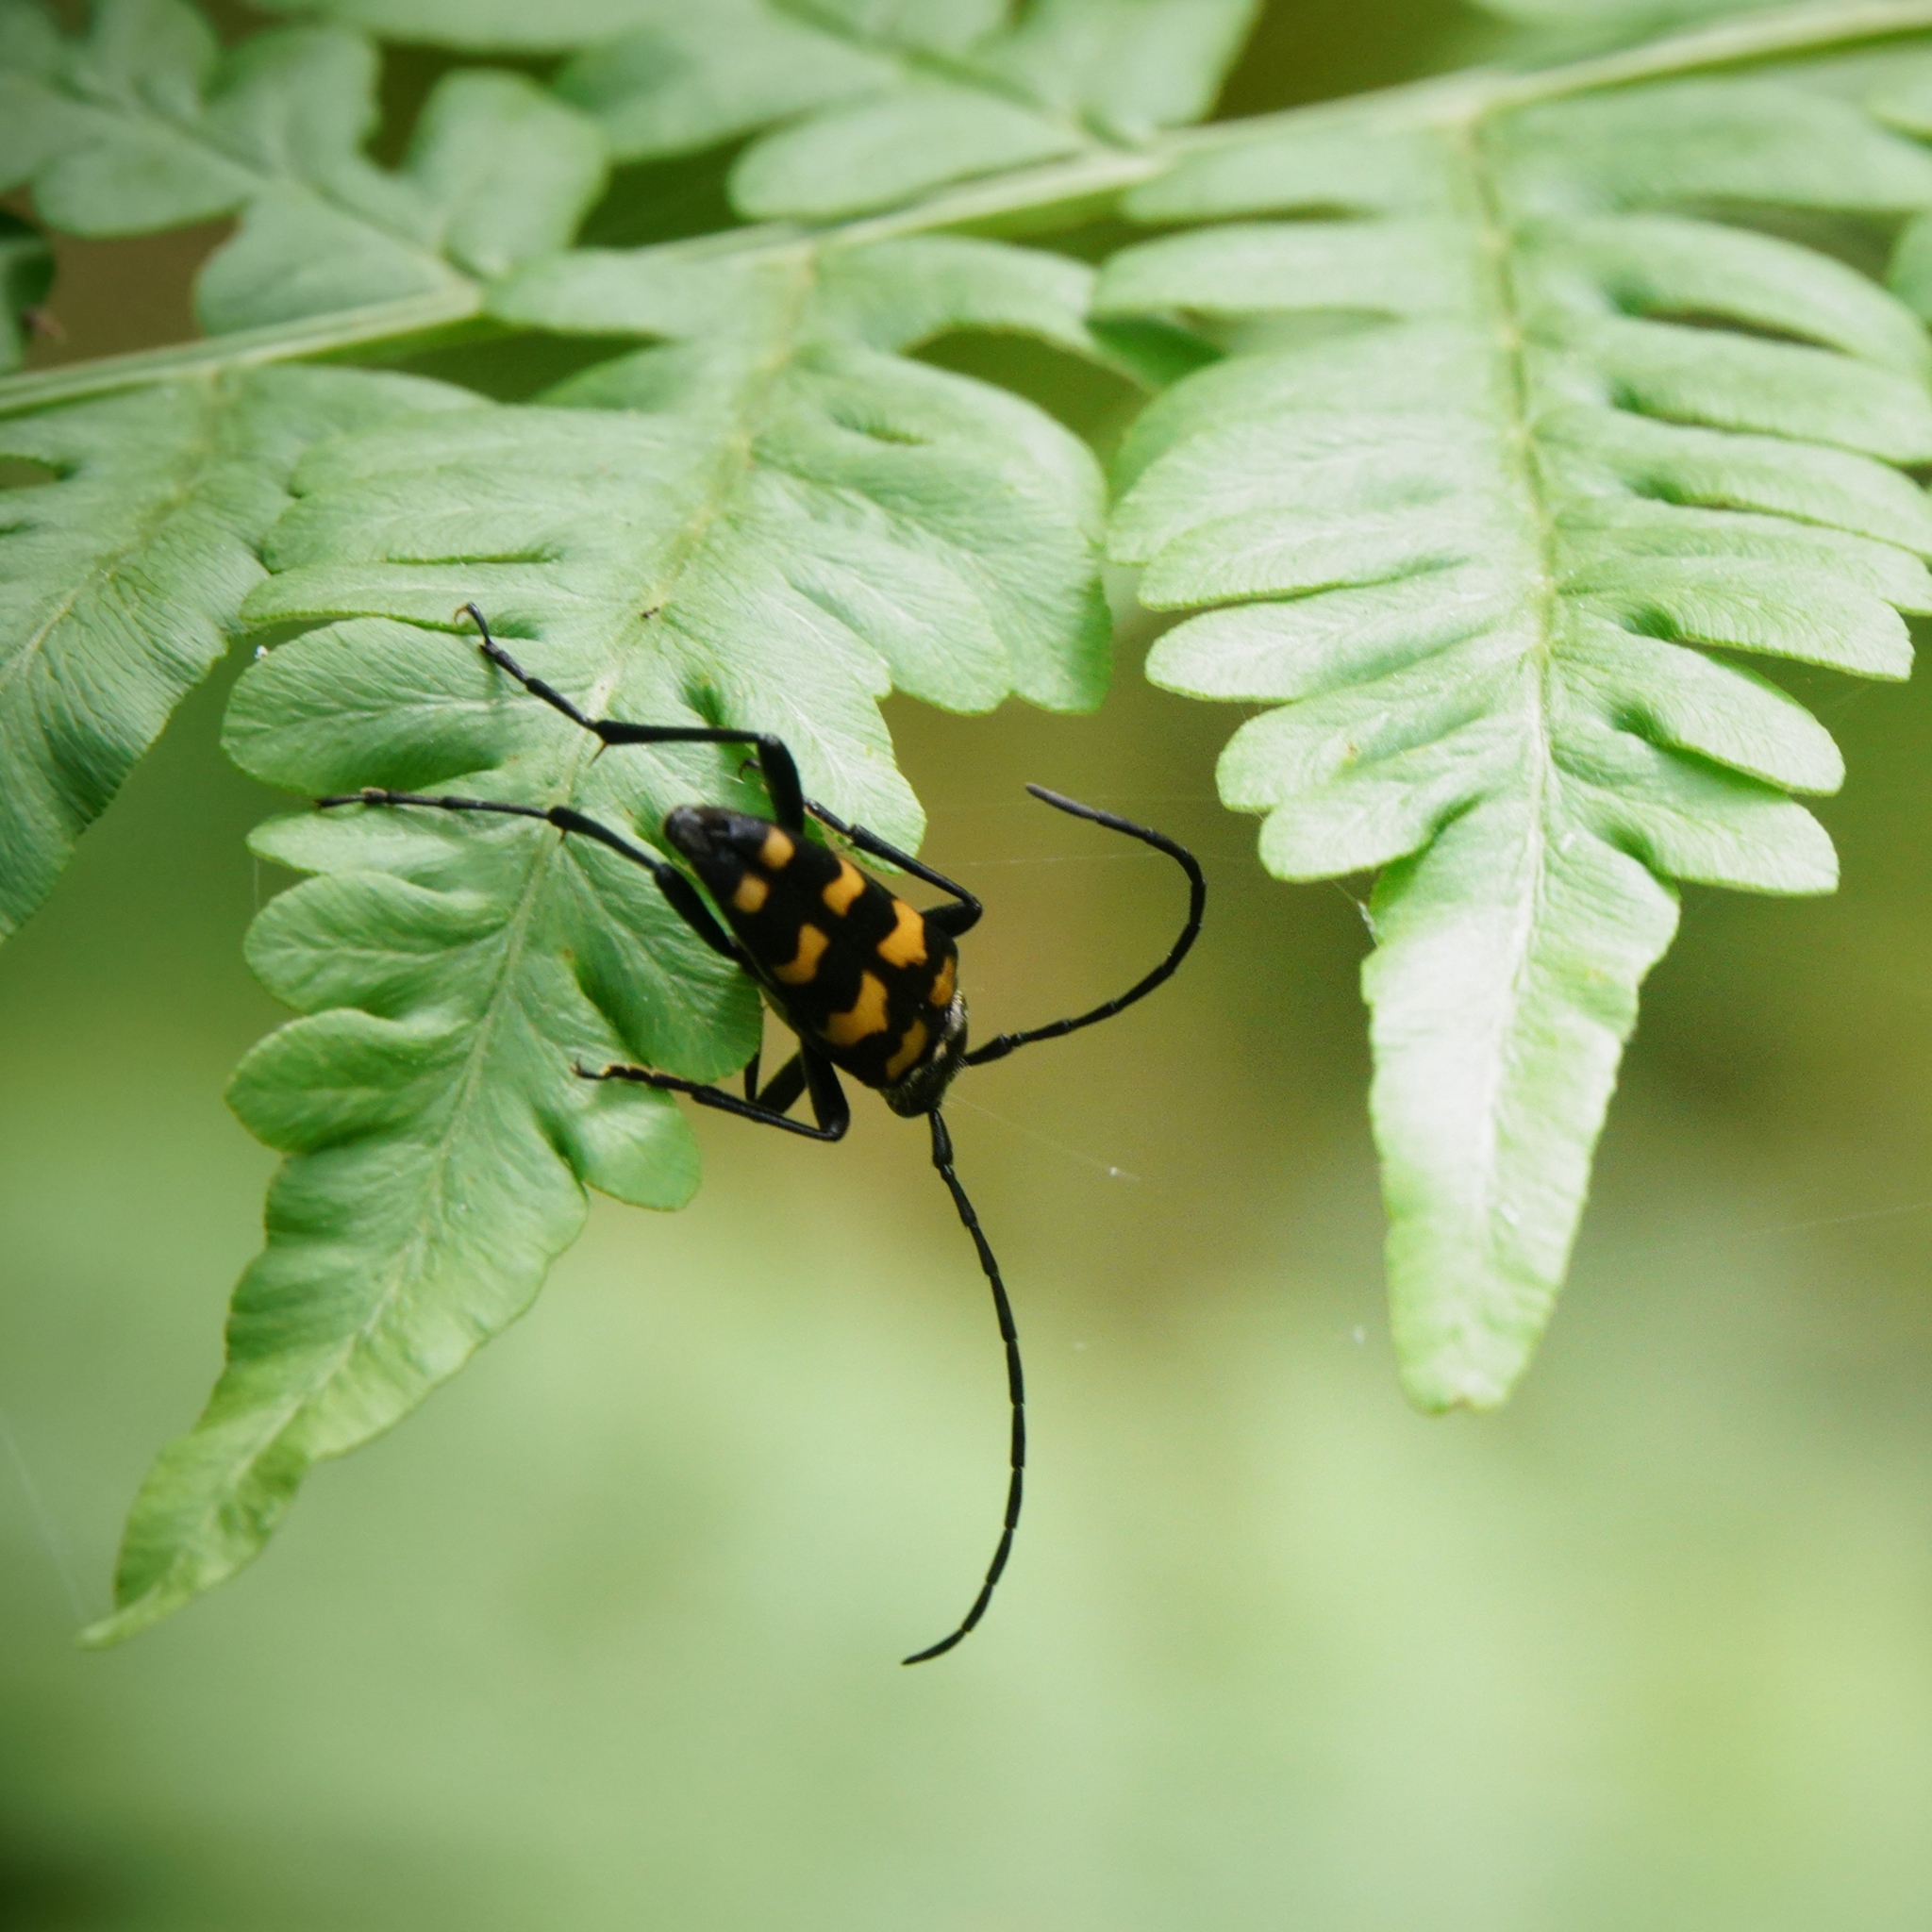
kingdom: Animalia
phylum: Arthropoda
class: Insecta
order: Coleoptera
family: Cerambycidae
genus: Leptura
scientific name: Leptura quadrifasciata
